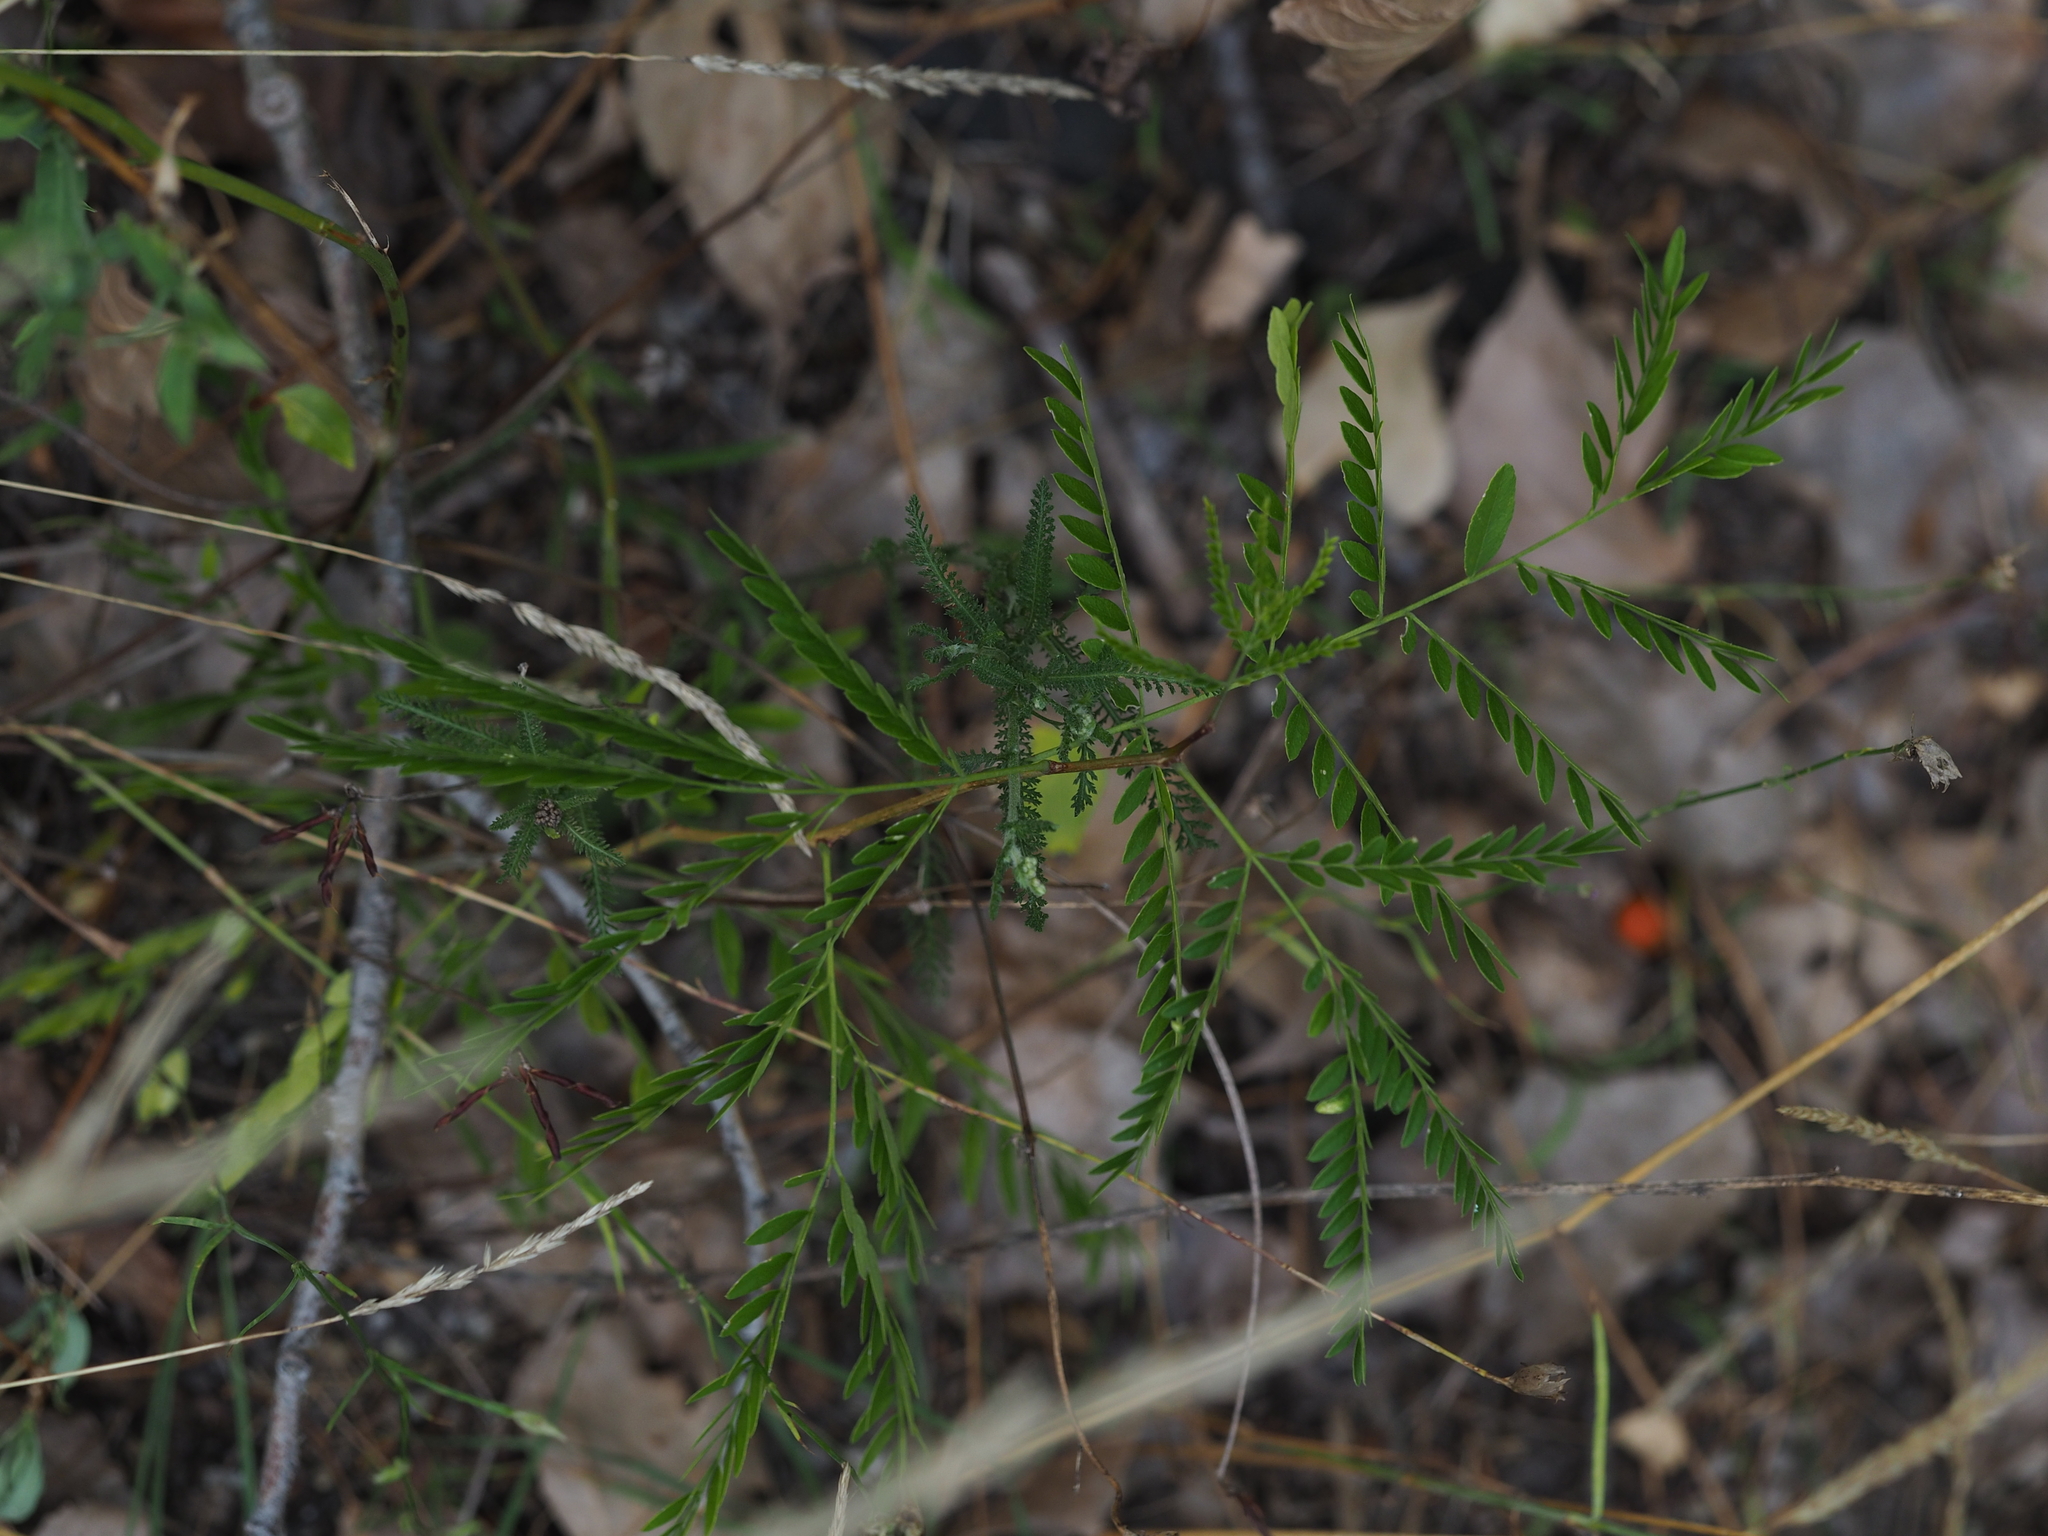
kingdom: Plantae
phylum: Tracheophyta
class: Magnoliopsida
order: Fabales
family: Fabaceae
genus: Gleditsia
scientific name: Gleditsia triacanthos
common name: Common honeylocust
